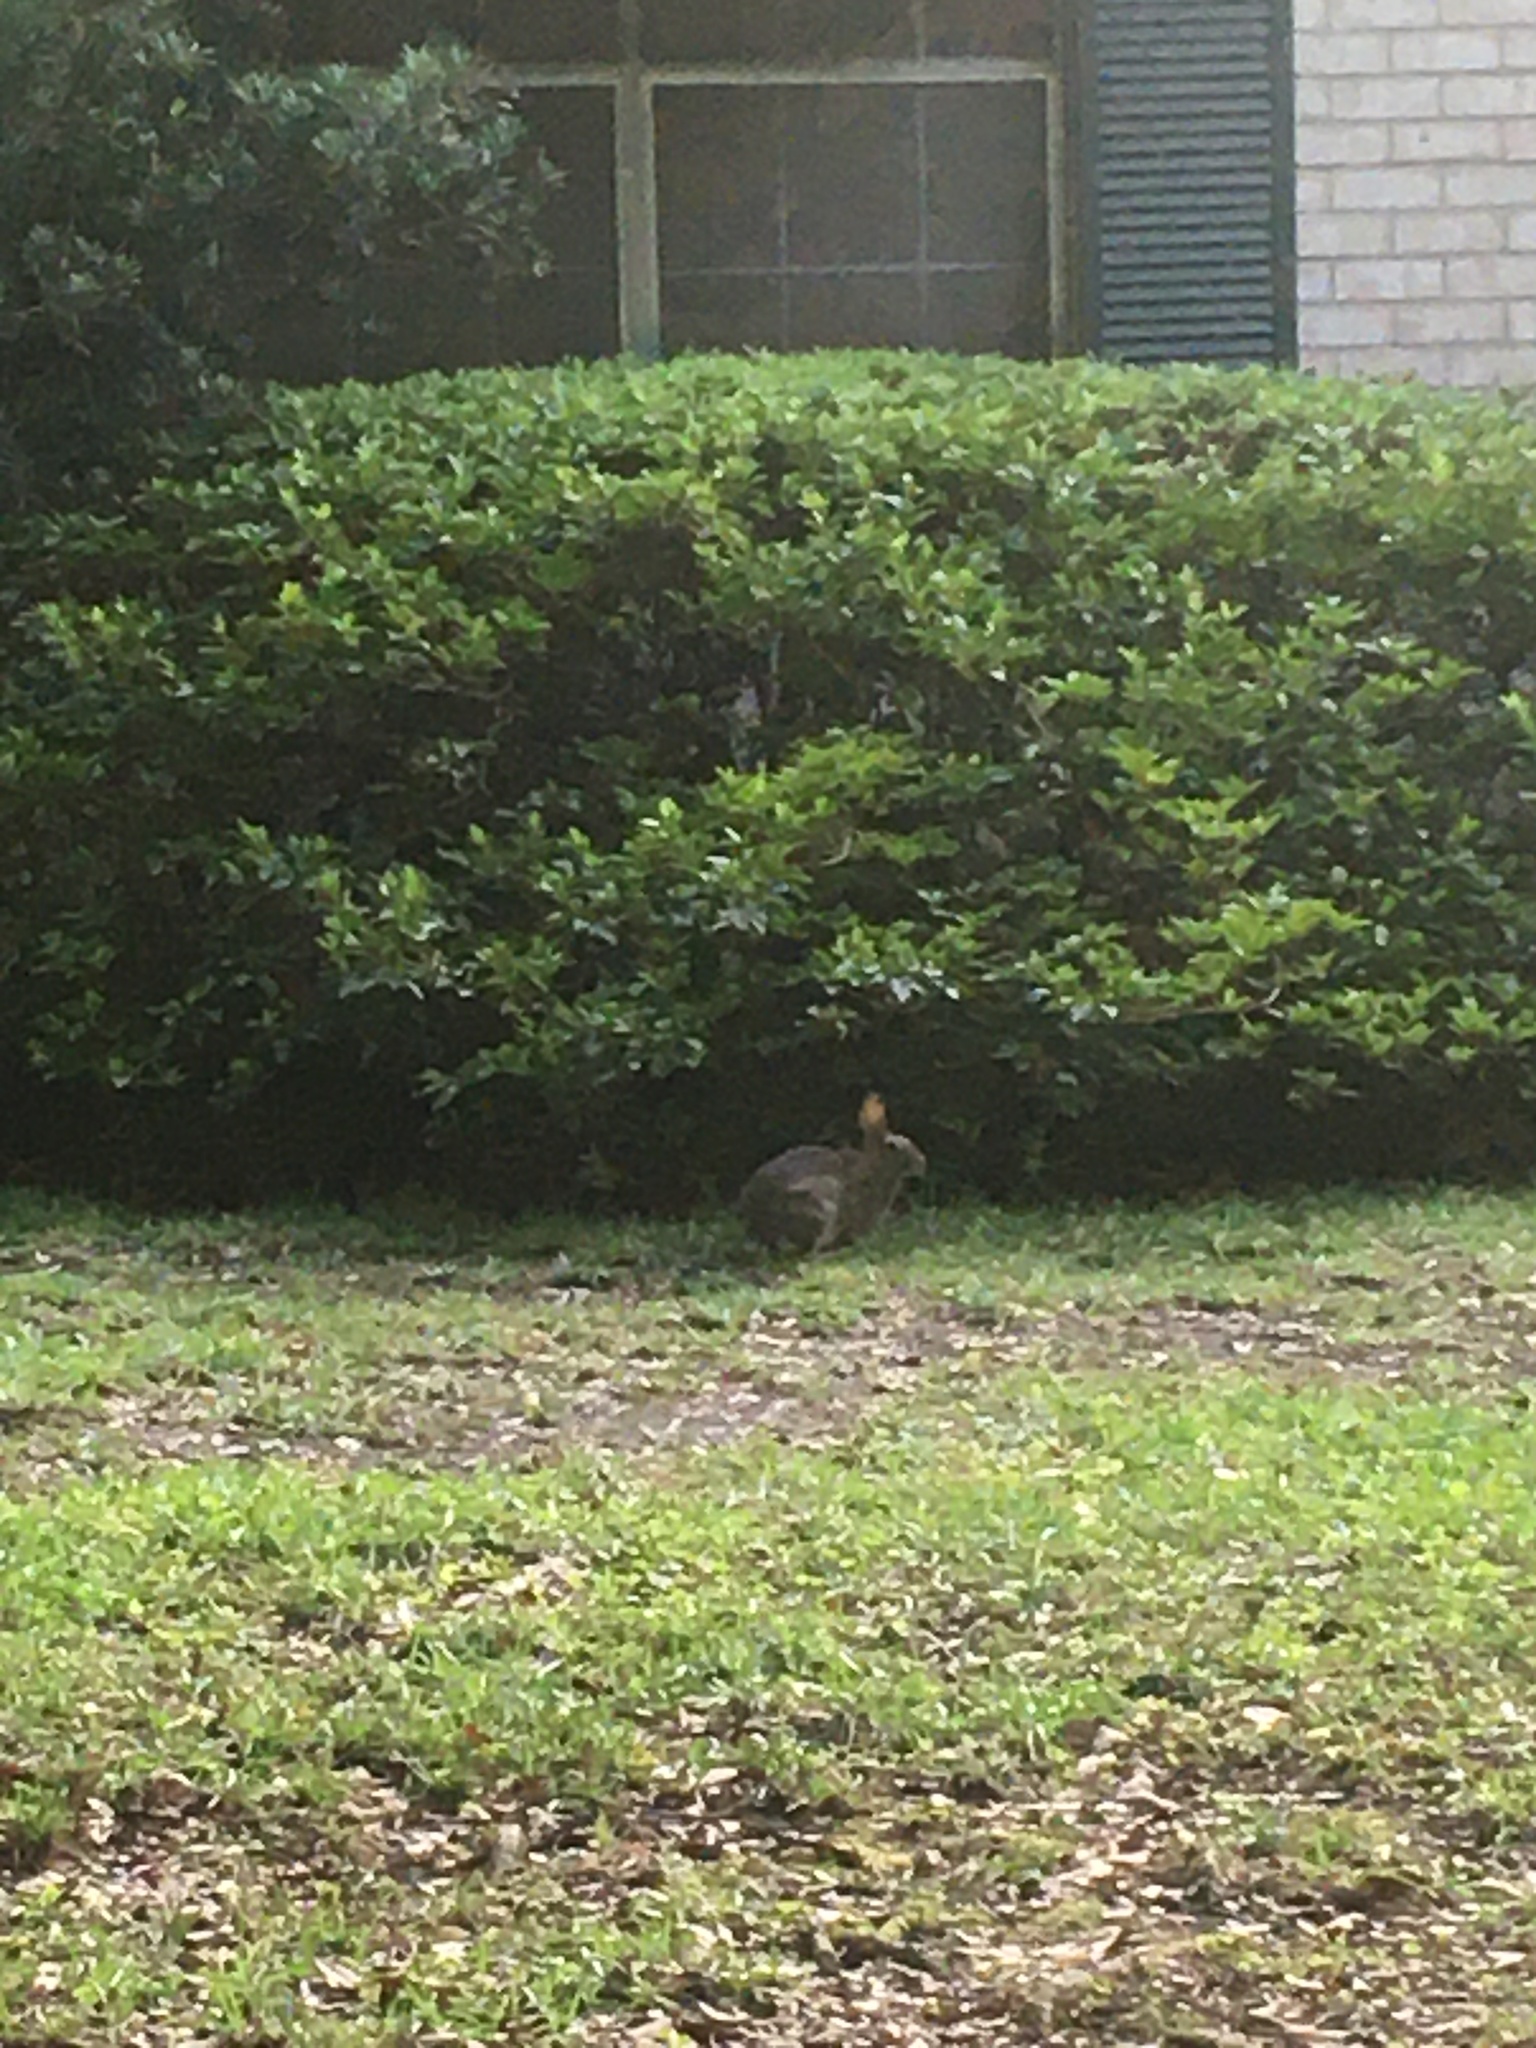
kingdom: Animalia
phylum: Chordata
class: Mammalia
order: Lagomorpha
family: Leporidae
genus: Sylvilagus
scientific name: Sylvilagus floridanus
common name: Eastern cottontail
